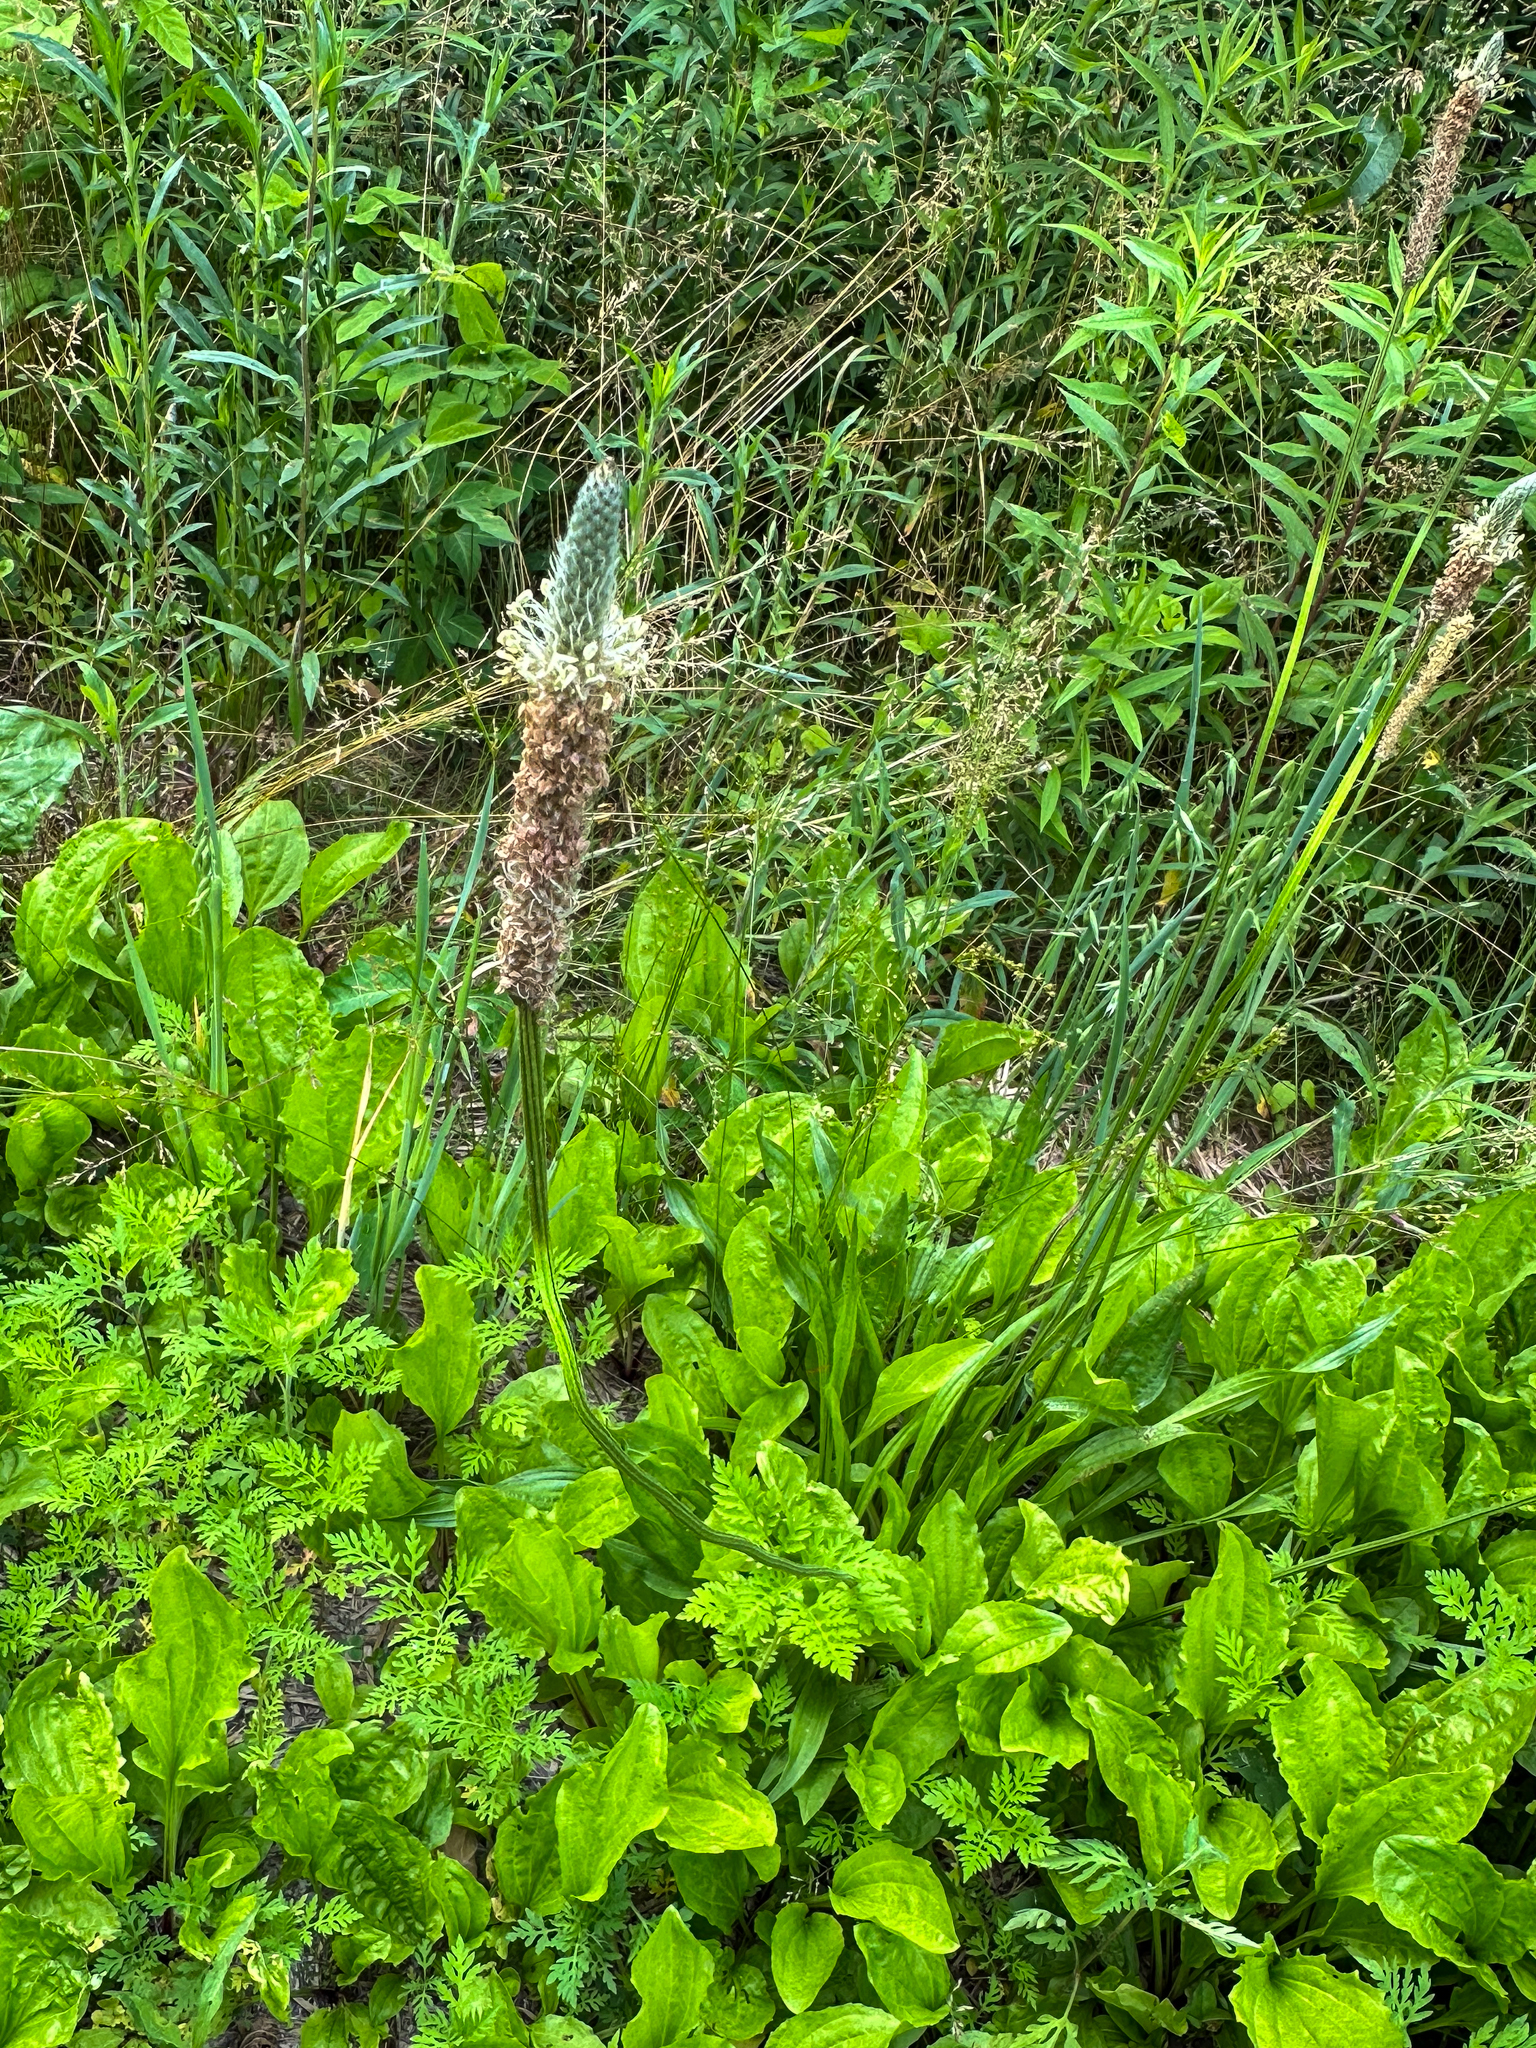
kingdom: Plantae
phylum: Tracheophyta
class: Magnoliopsida
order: Lamiales
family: Plantaginaceae
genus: Plantago
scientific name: Plantago lanceolata
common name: Ribwort plantain
